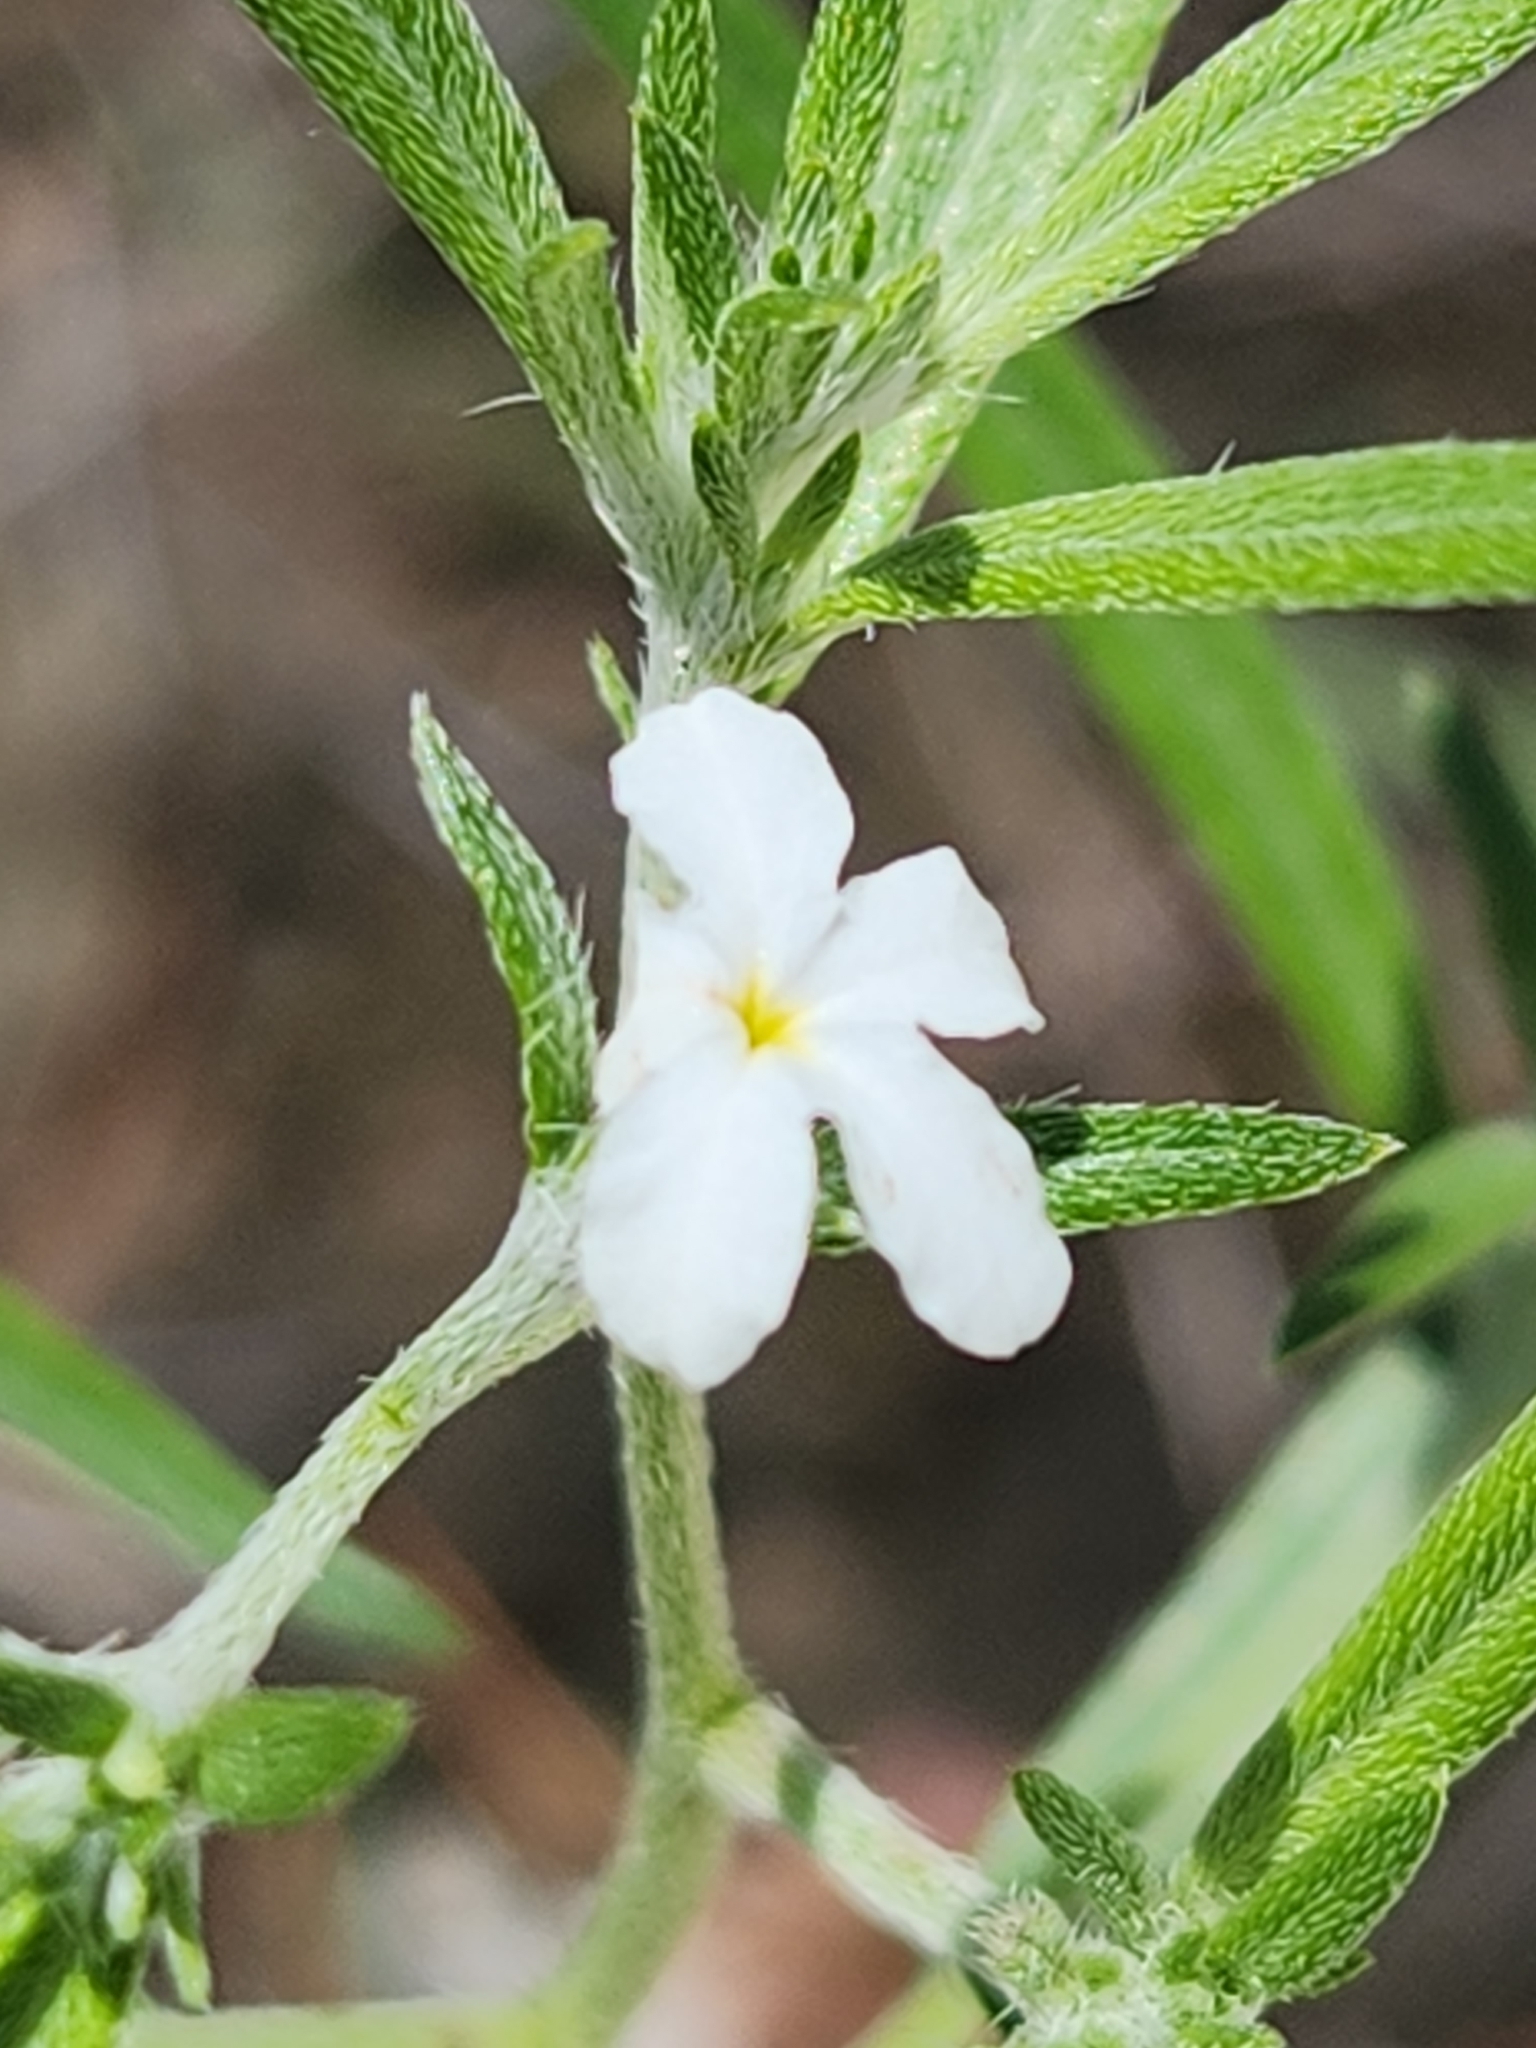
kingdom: Plantae
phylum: Tracheophyta
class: Magnoliopsida
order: Boraginales
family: Heliotropiaceae
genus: Euploca
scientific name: Euploca tenella
